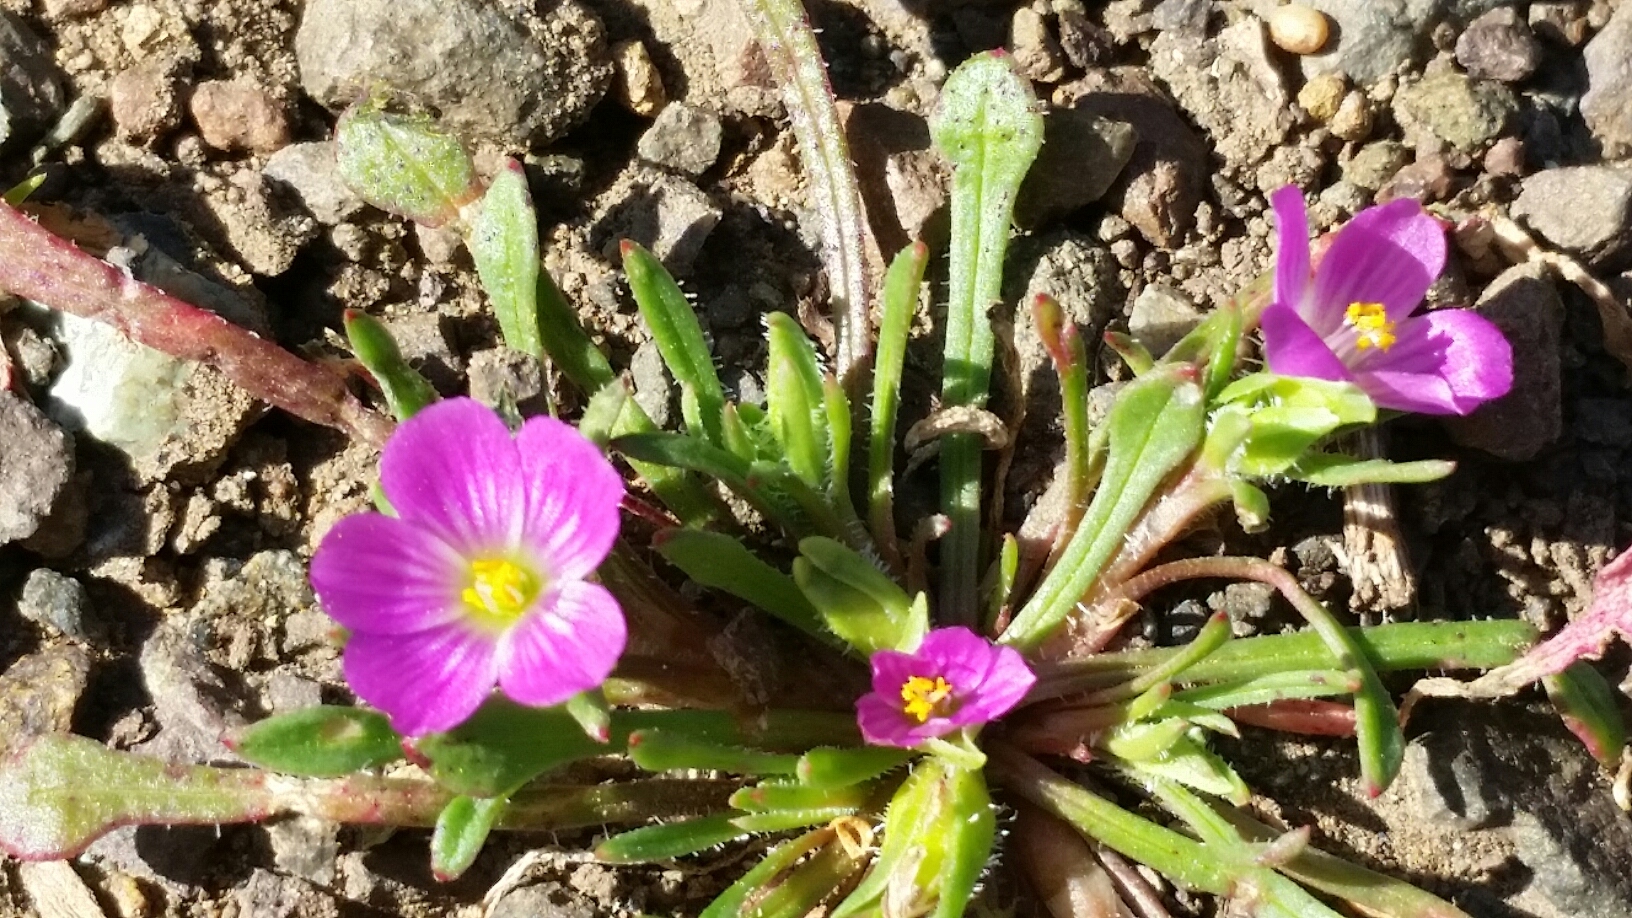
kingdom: Plantae
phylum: Tracheophyta
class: Magnoliopsida
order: Caryophyllales
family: Montiaceae
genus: Calandrinia
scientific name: Calandrinia menziesii
